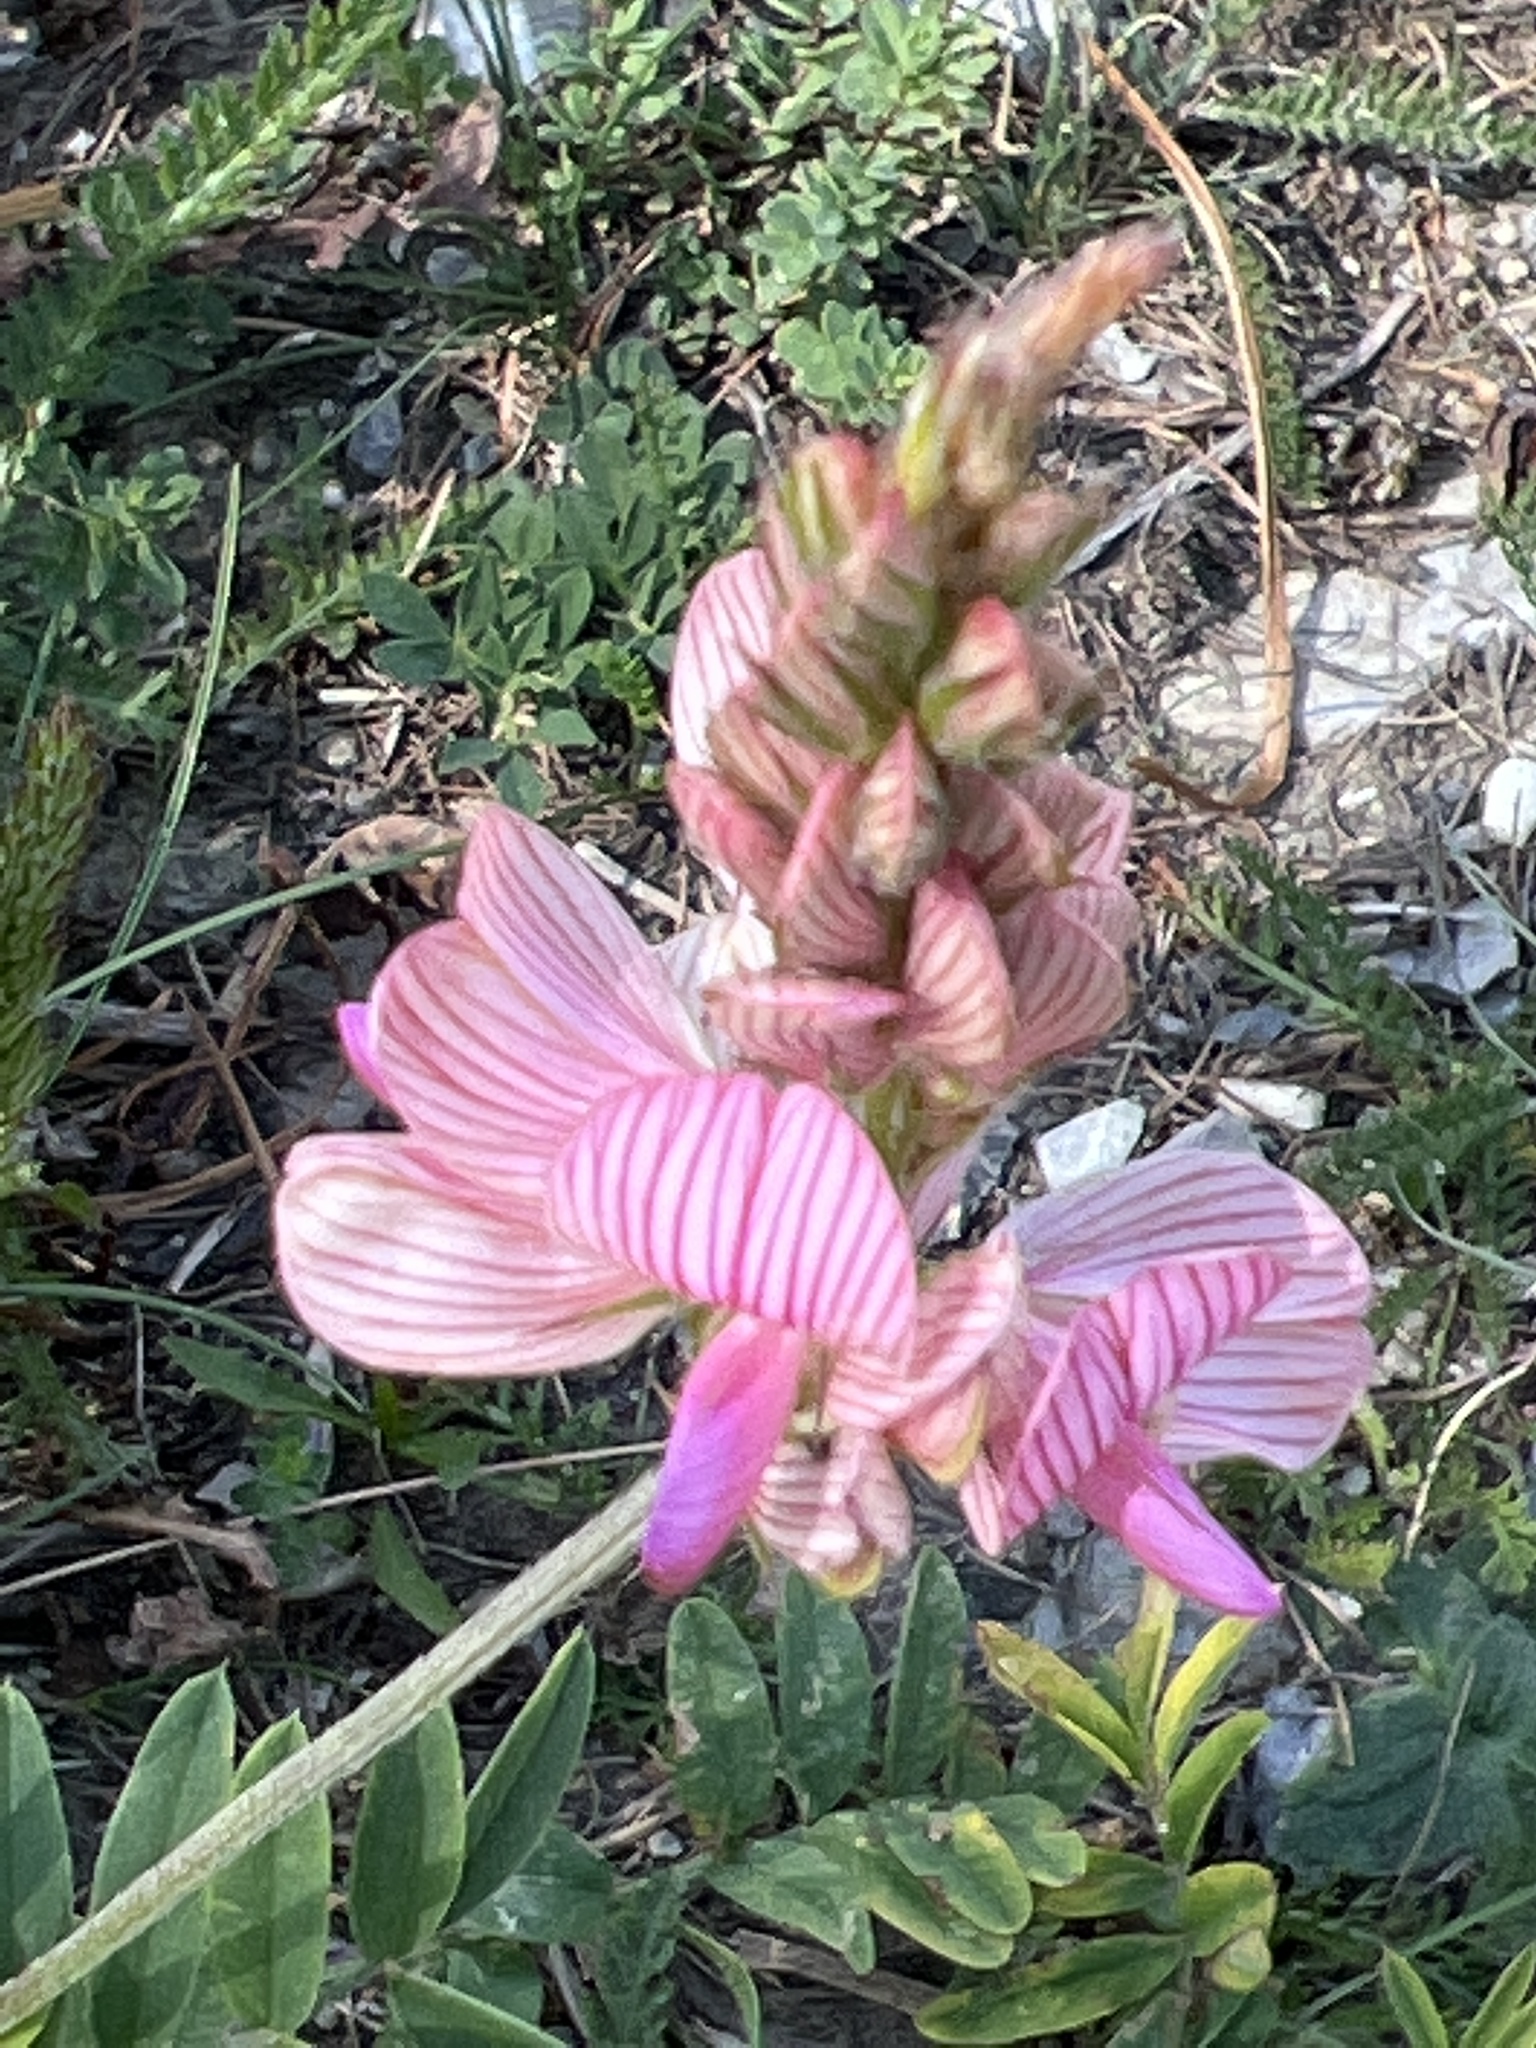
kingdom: Plantae
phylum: Tracheophyta
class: Magnoliopsida
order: Fabales
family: Fabaceae
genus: Onobrychis
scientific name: Onobrychis viciifolia
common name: Sainfoin
